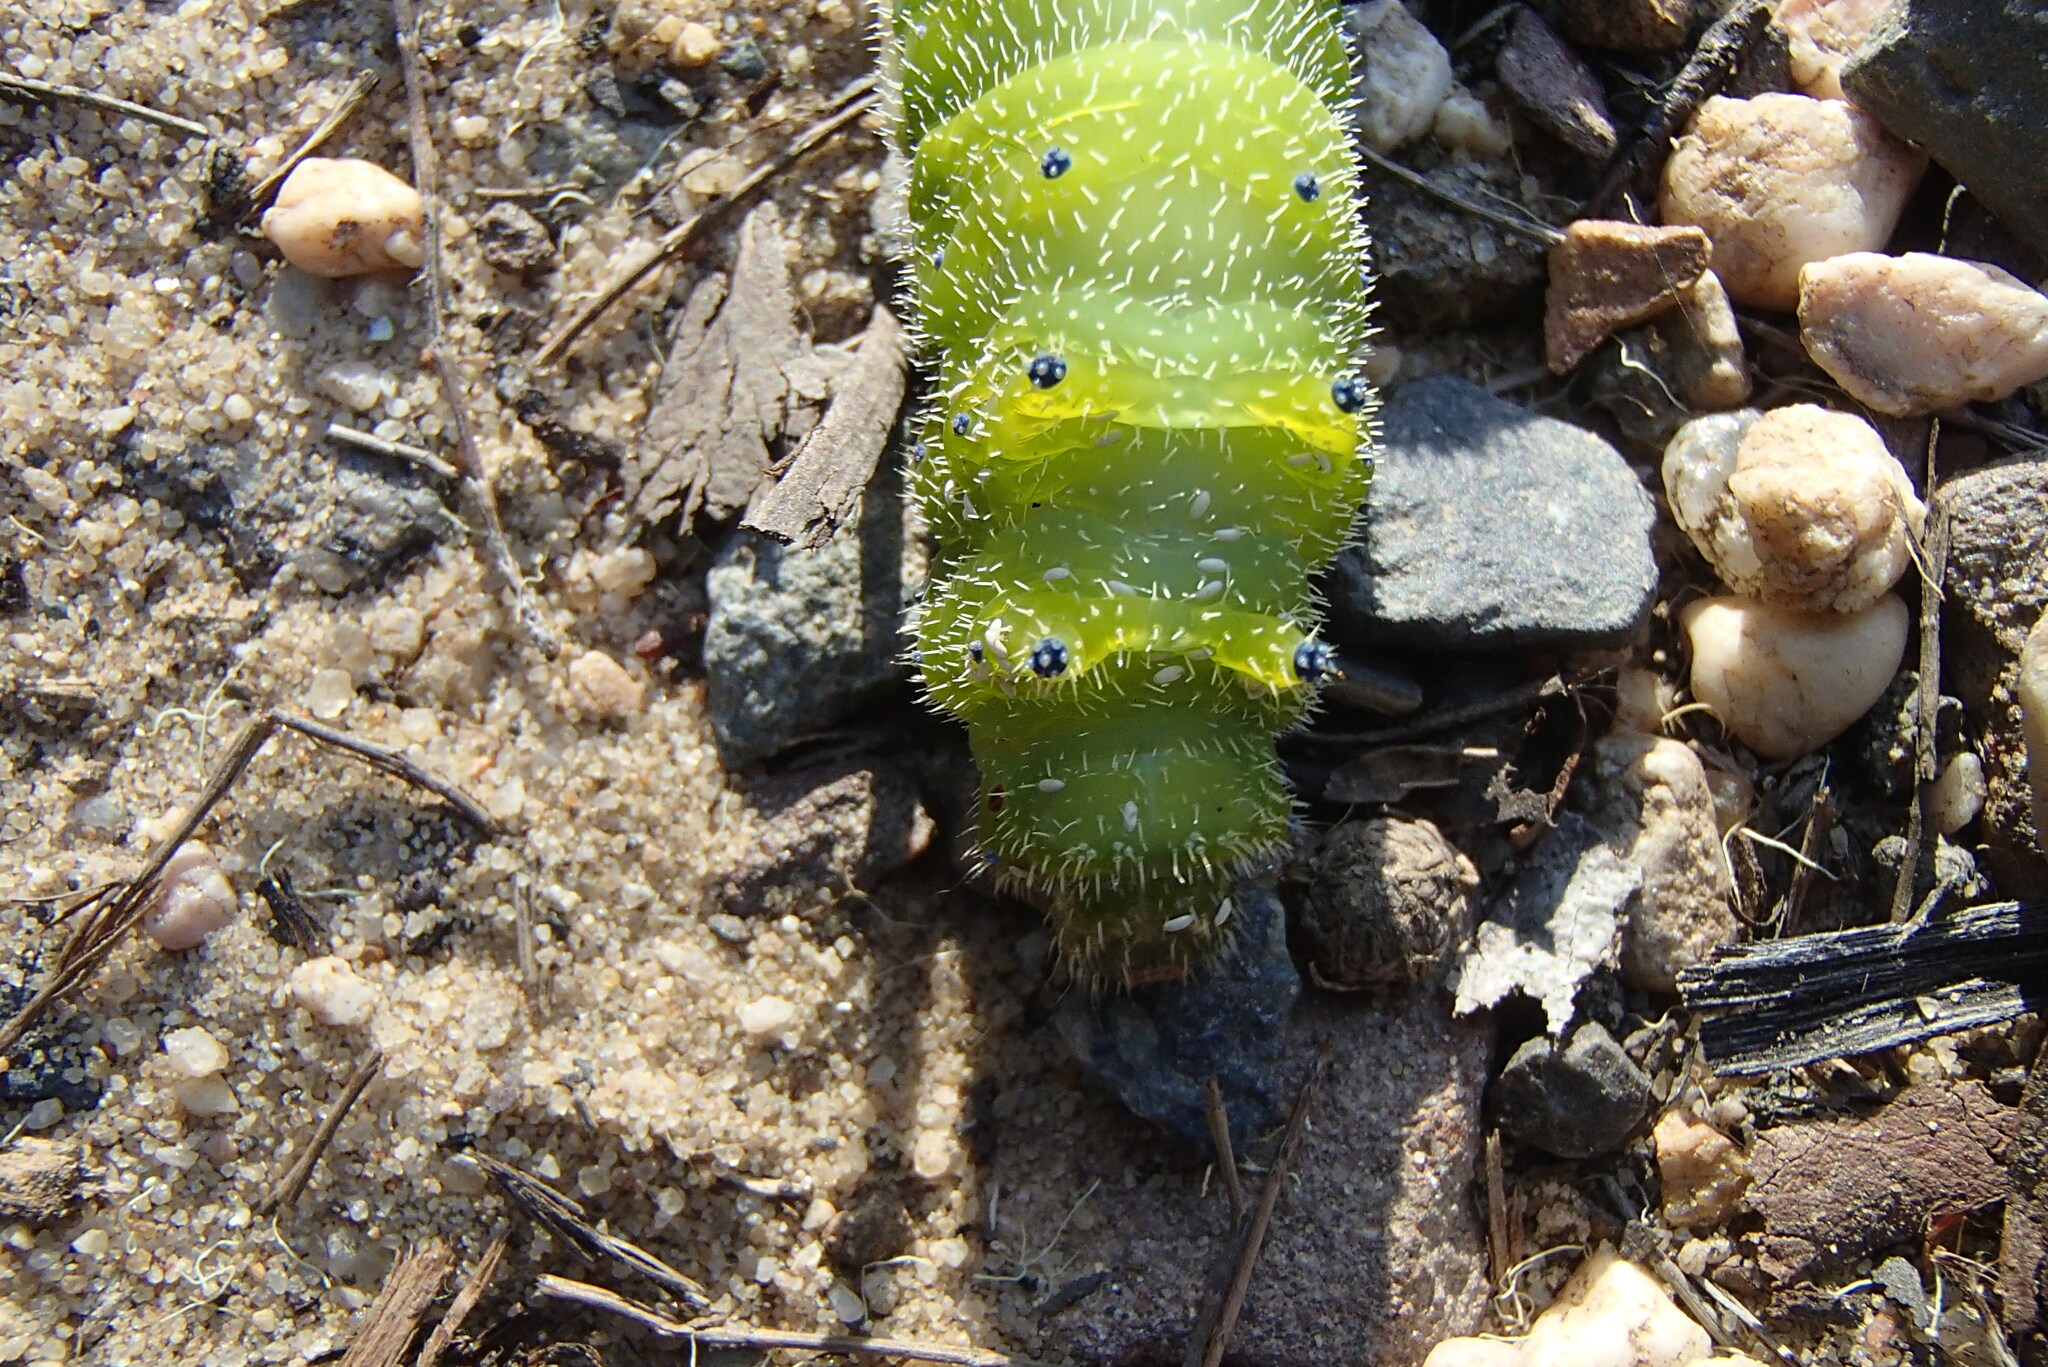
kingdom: Animalia
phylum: Arthropoda
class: Insecta
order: Lepidoptera
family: Saturniidae
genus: Opodiphthera
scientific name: Opodiphthera
